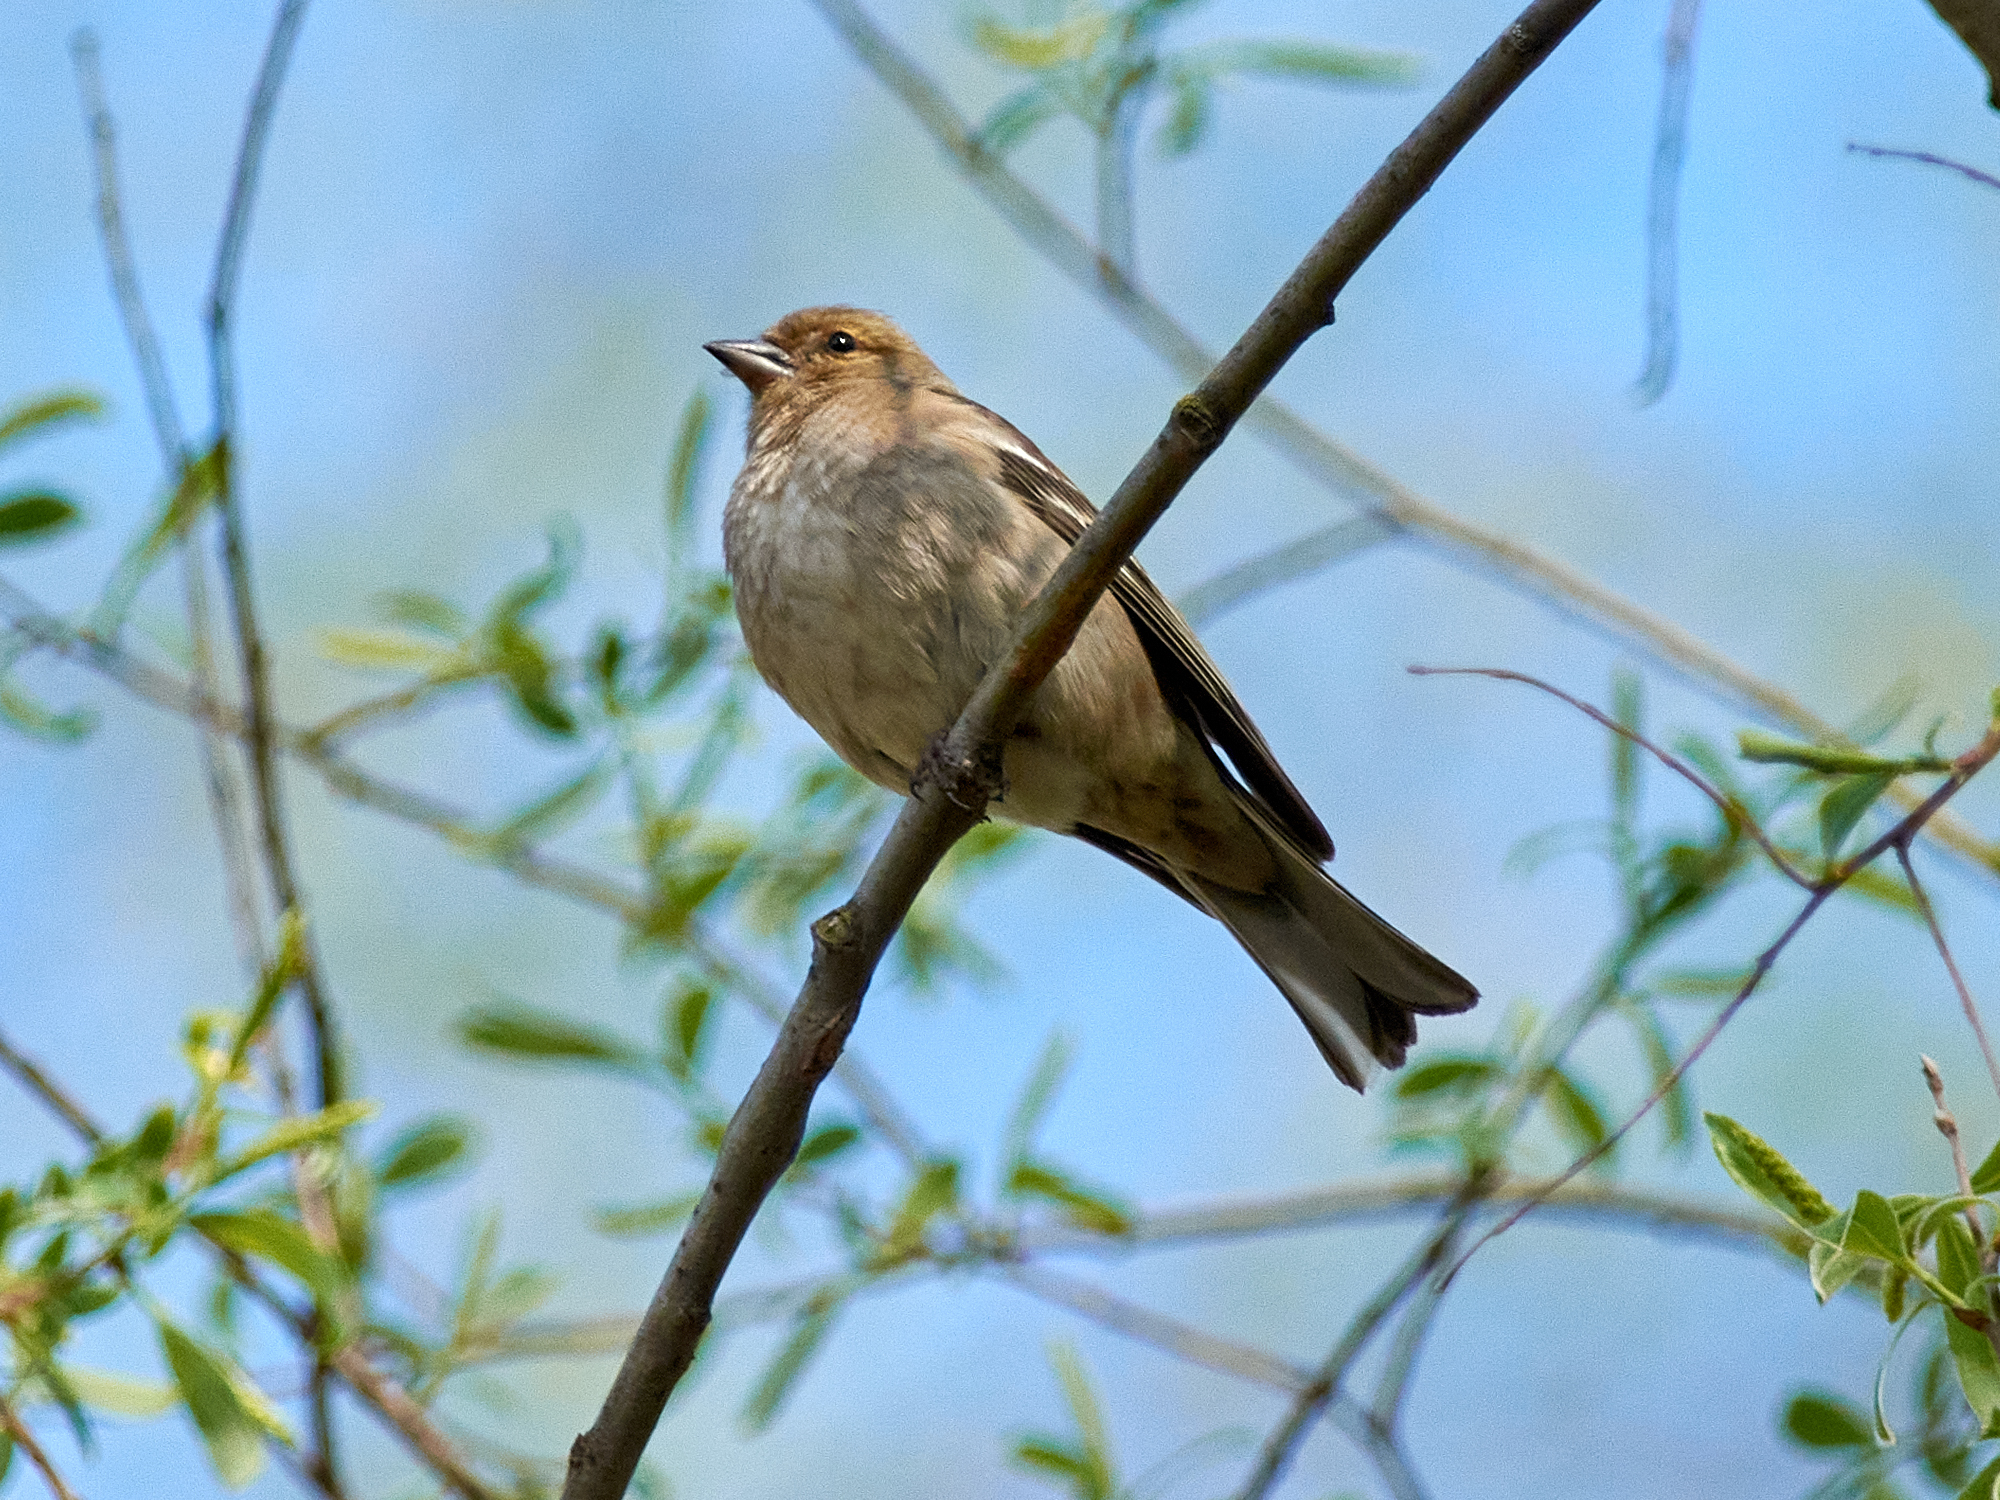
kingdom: Animalia
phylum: Chordata
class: Aves
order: Passeriformes
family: Fringillidae
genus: Fringilla
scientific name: Fringilla coelebs
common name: Common chaffinch
